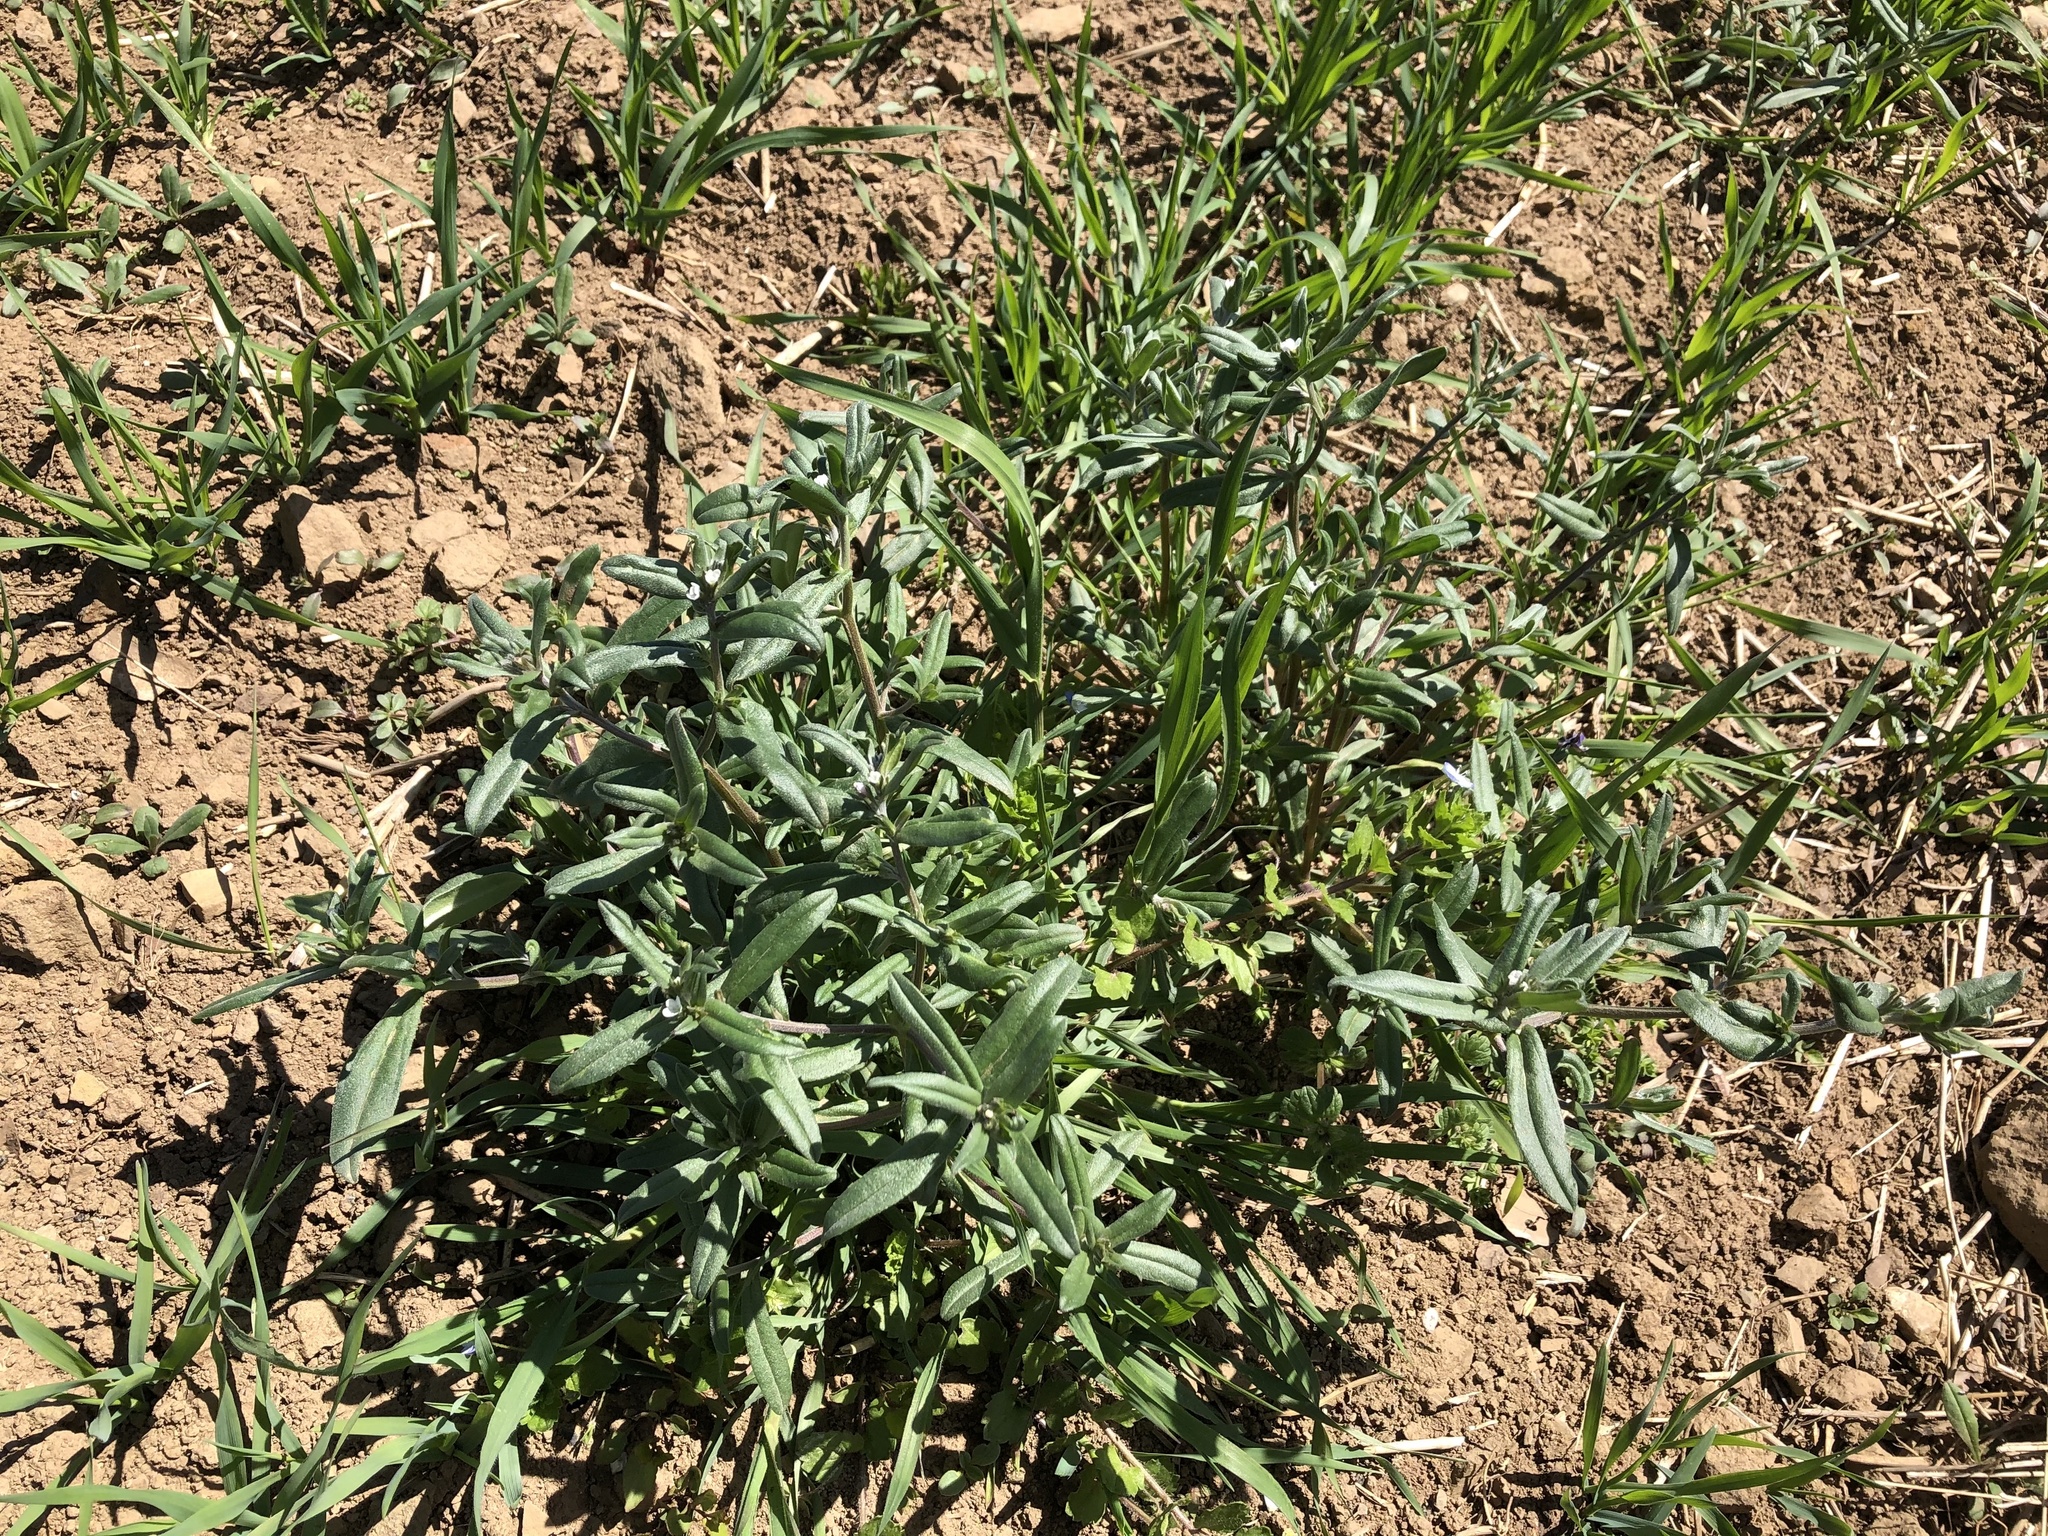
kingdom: Plantae
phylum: Tracheophyta
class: Magnoliopsida
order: Boraginales
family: Boraginaceae
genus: Buglossoides
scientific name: Buglossoides arvensis
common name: Corn gromwell
